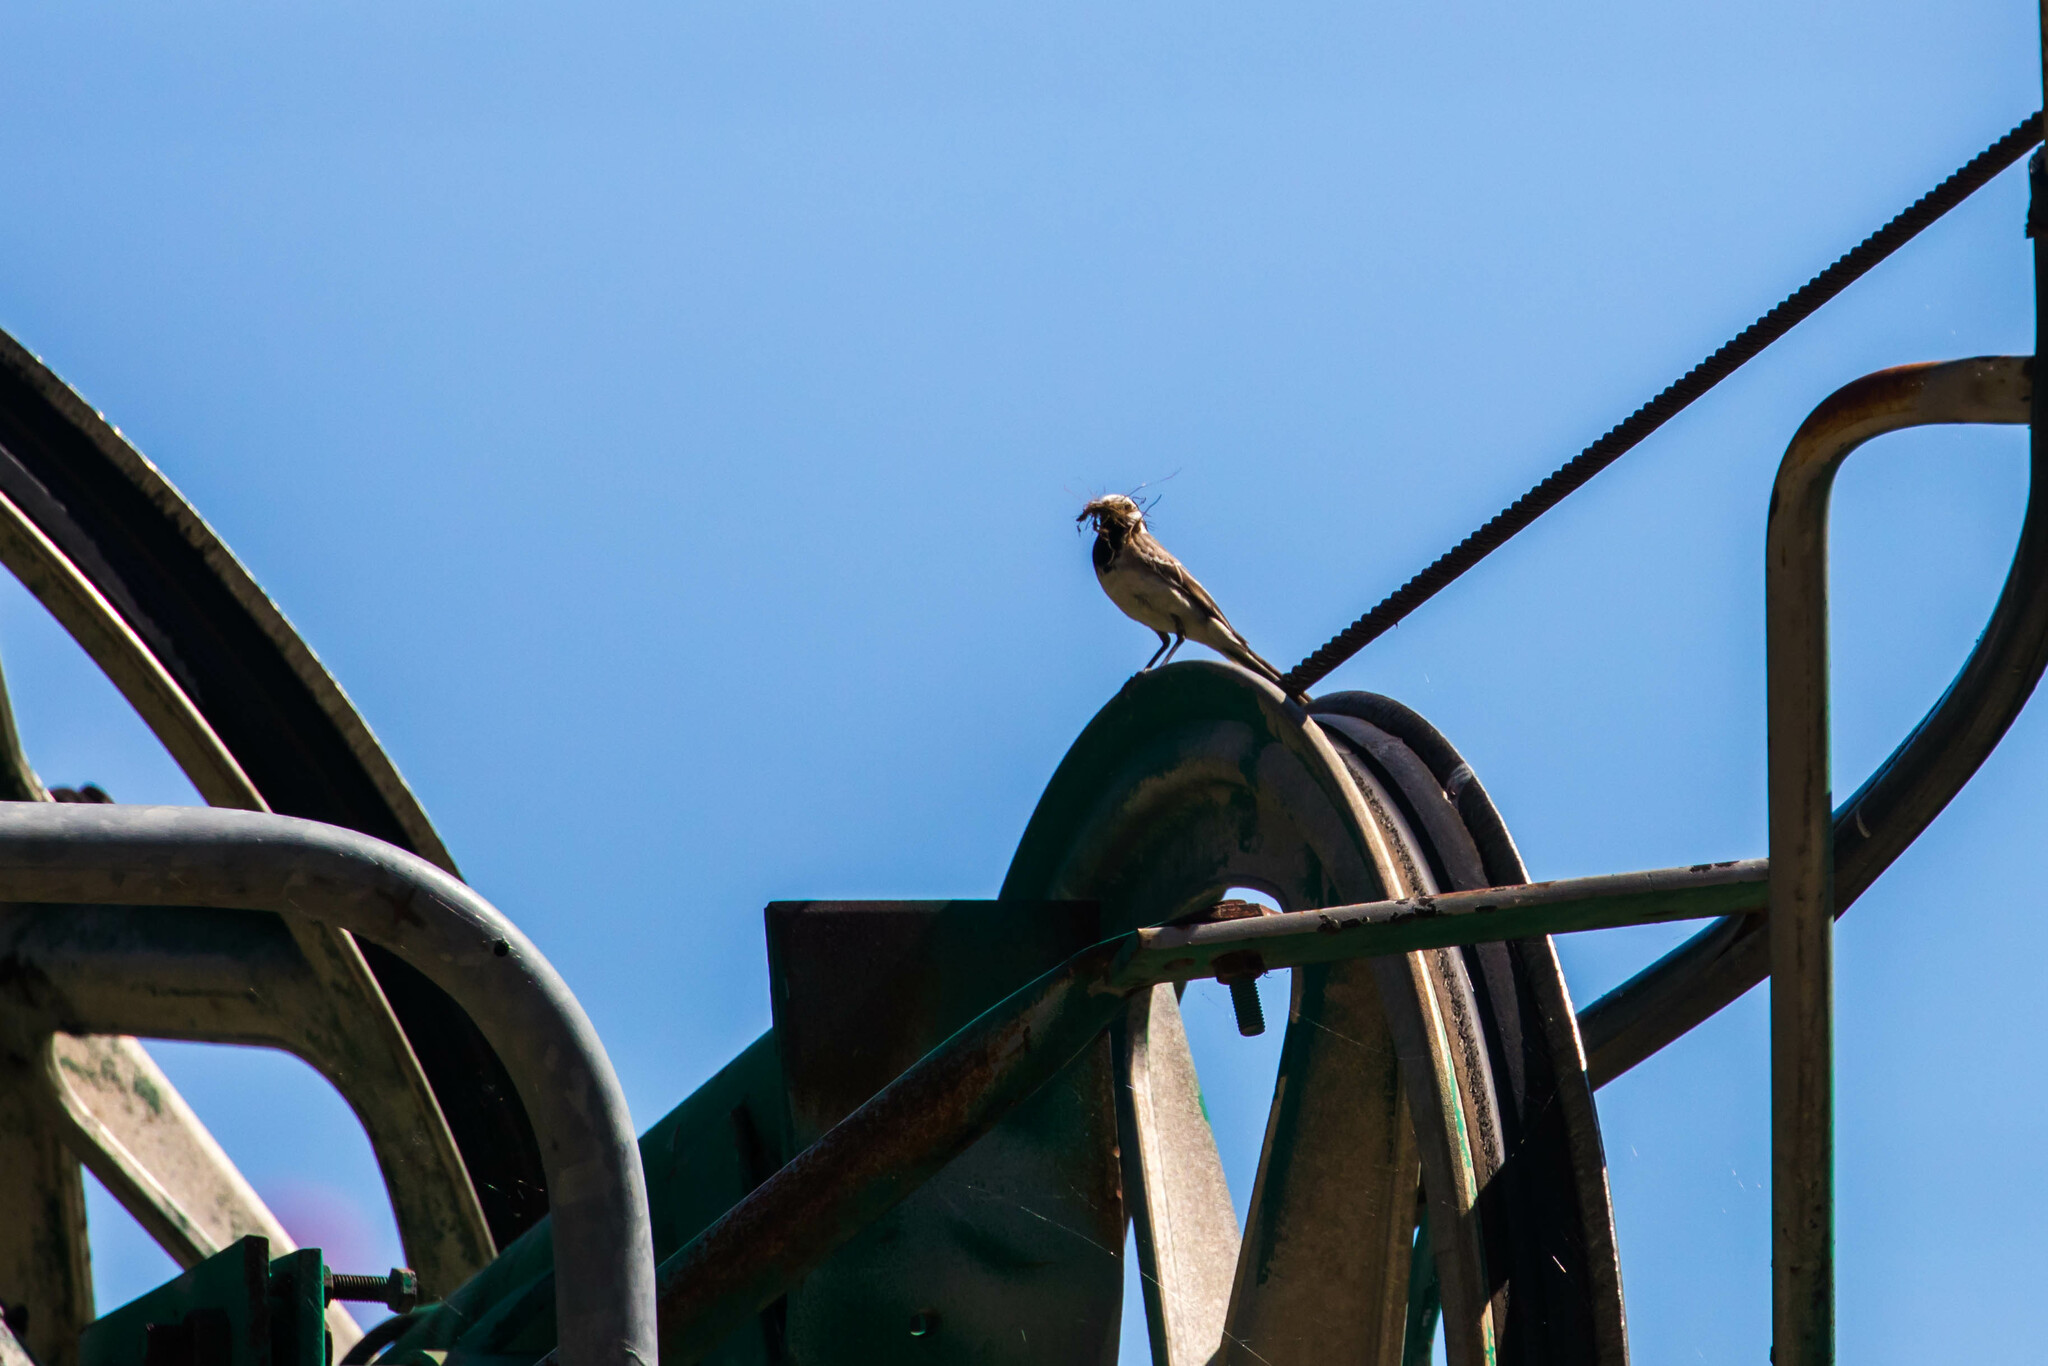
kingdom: Animalia
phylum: Chordata
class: Aves
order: Passeriformes
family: Motacillidae
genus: Motacilla
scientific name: Motacilla alba
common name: White wagtail
